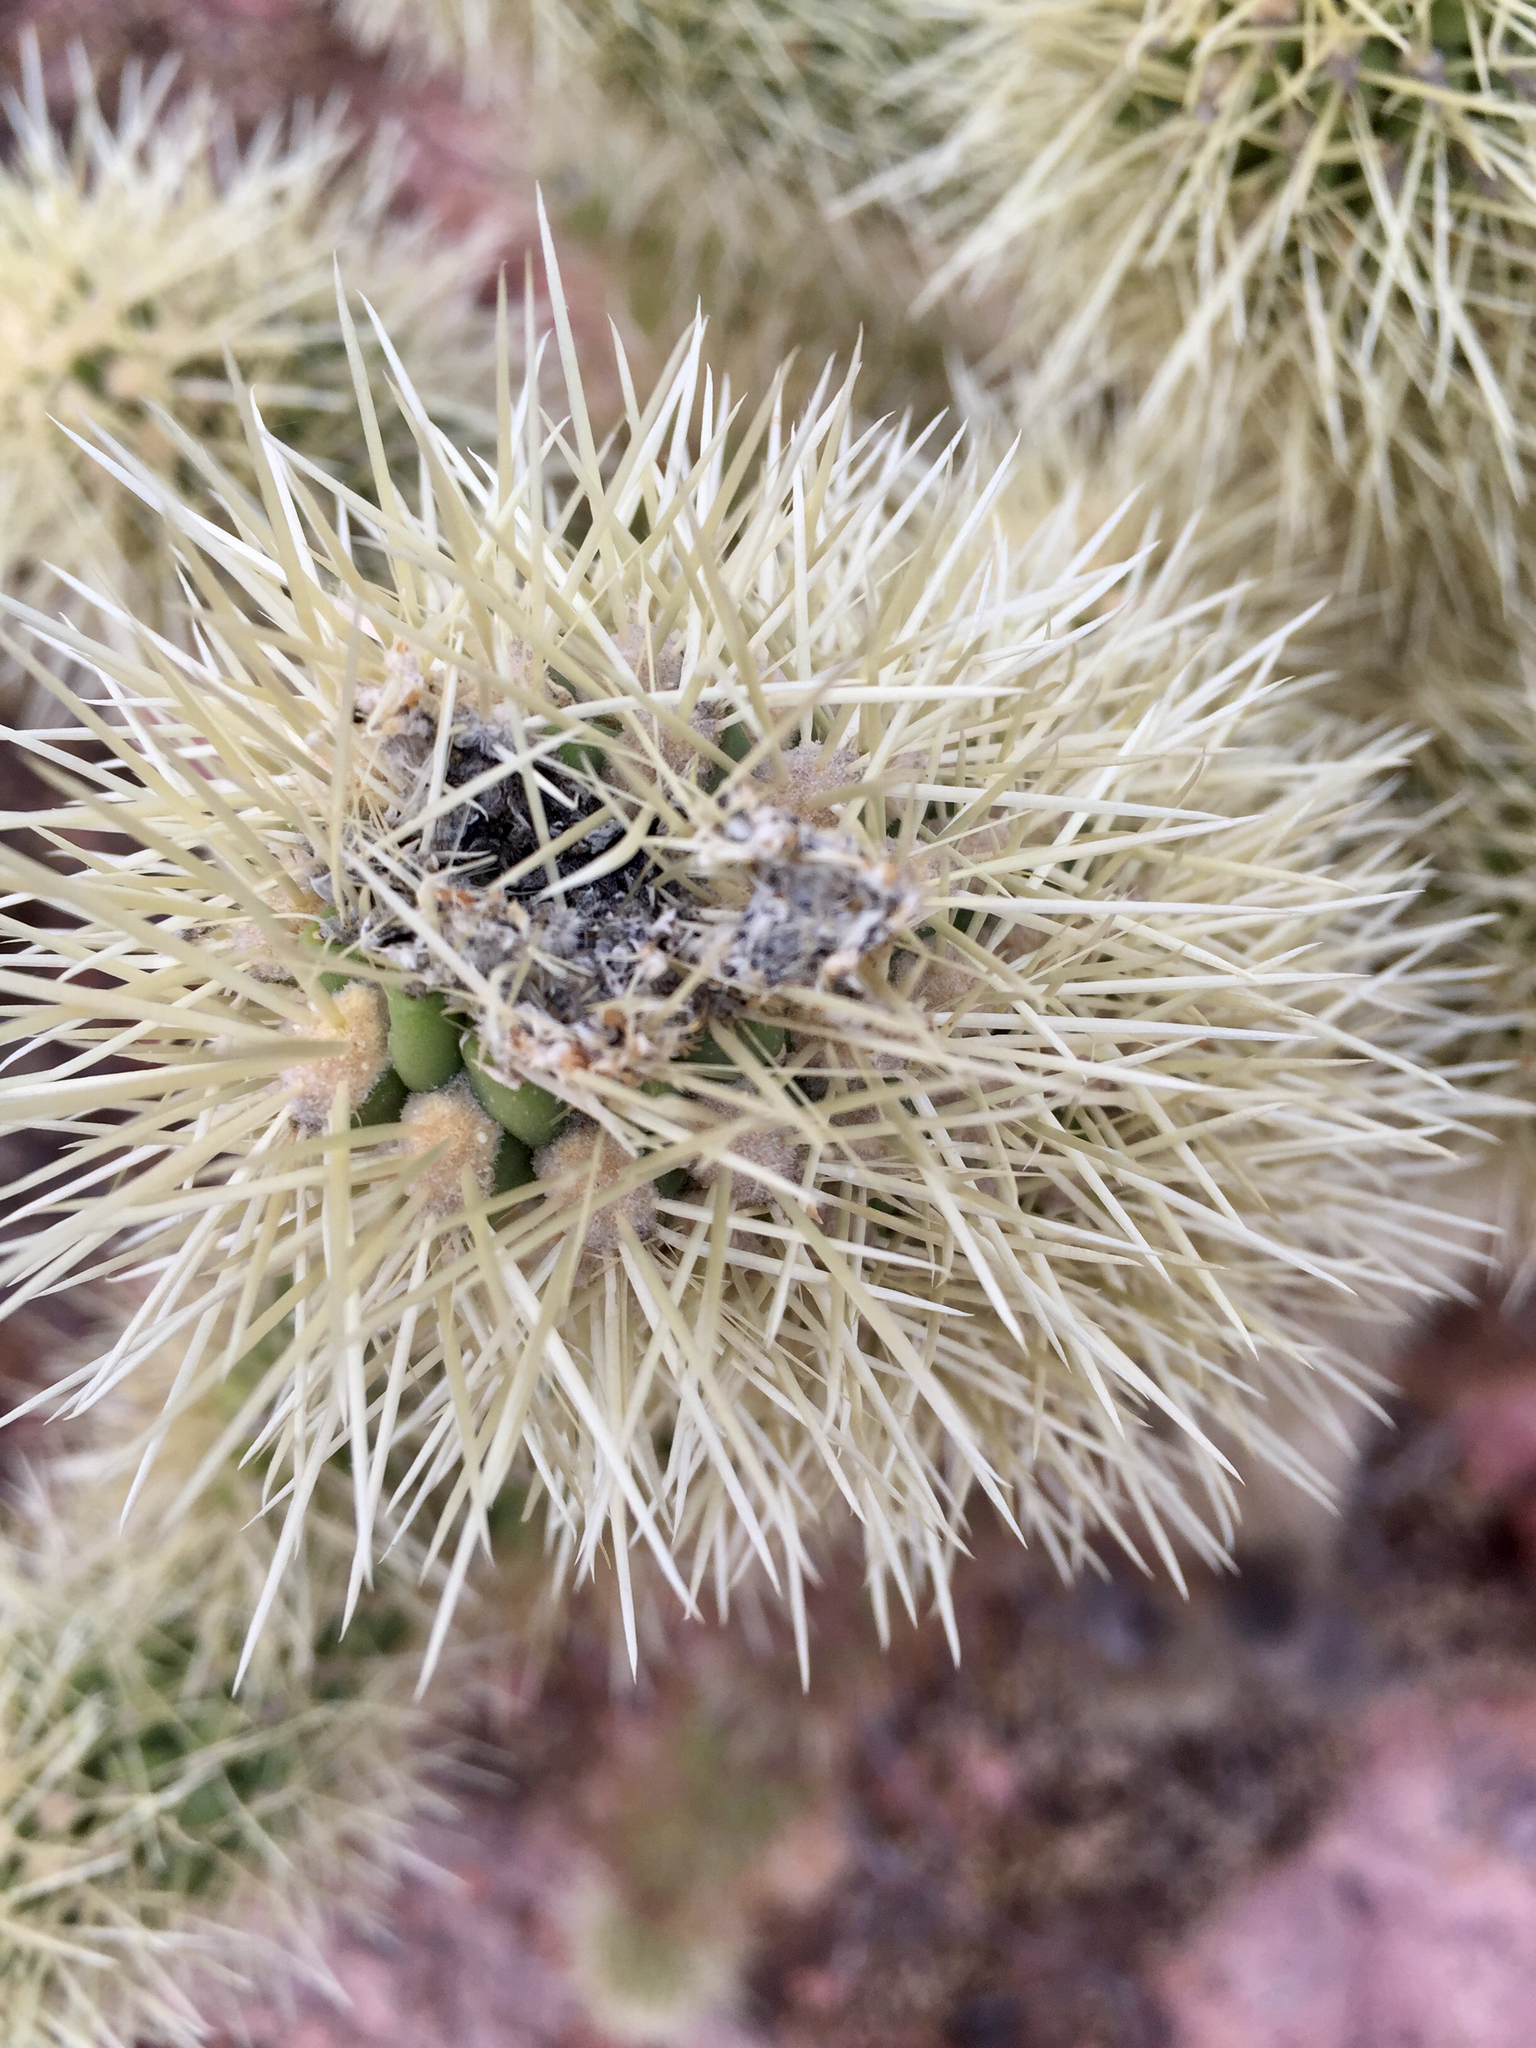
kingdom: Plantae
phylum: Tracheophyta
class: Magnoliopsida
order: Caryophyllales
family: Cactaceae
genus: Cylindropuntia
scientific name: Cylindropuntia fosbergii
